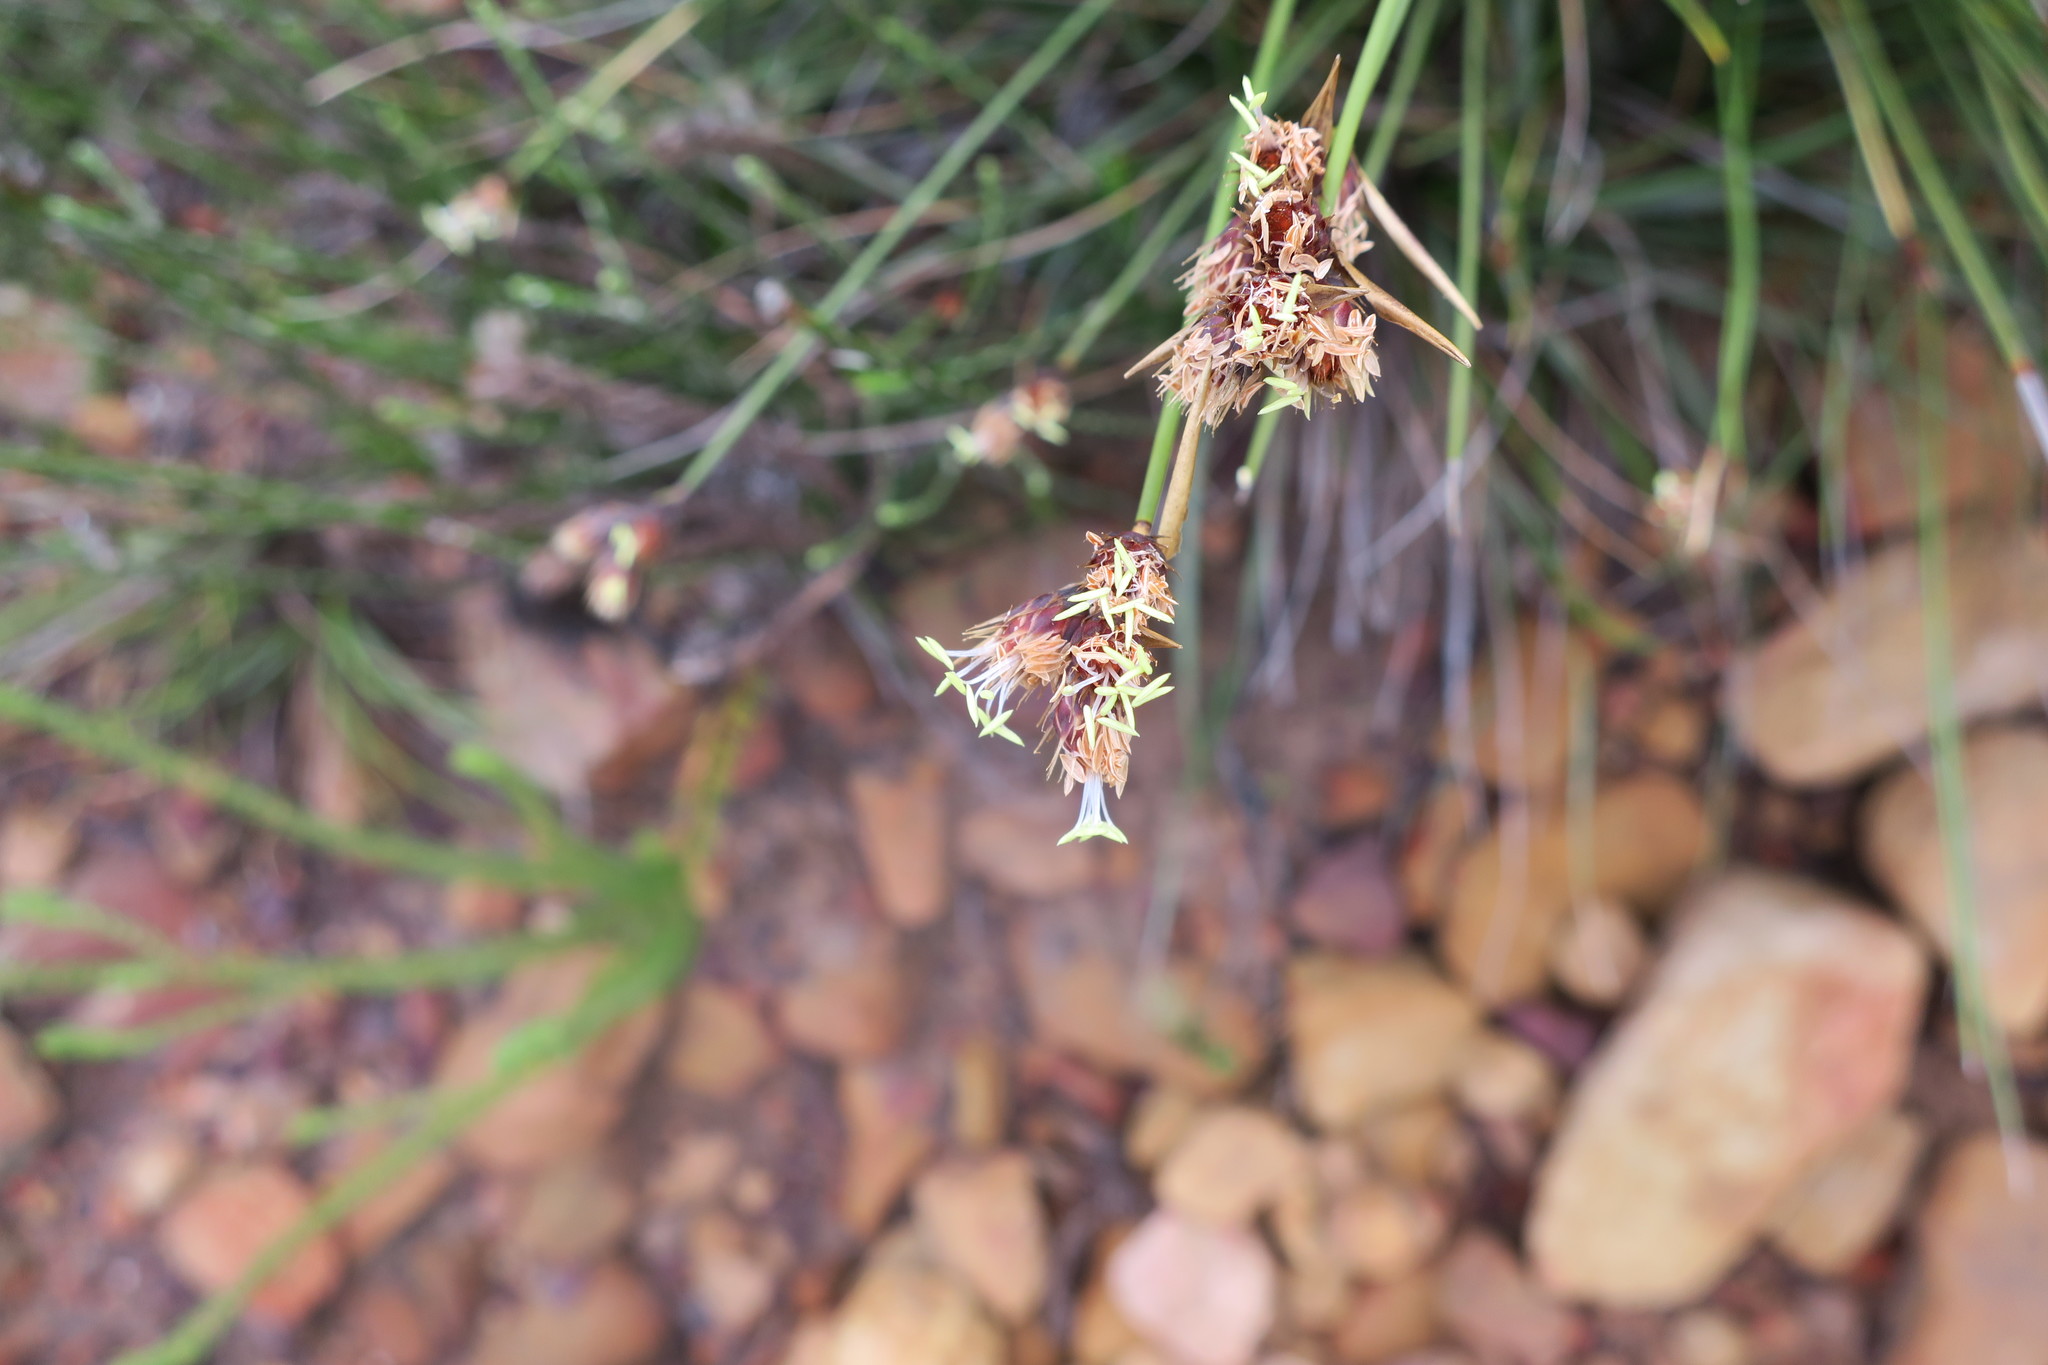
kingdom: Plantae
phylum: Tracheophyta
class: Liliopsida
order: Poales
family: Restionaceae
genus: Hypodiscus
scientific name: Hypodiscus aristatus
